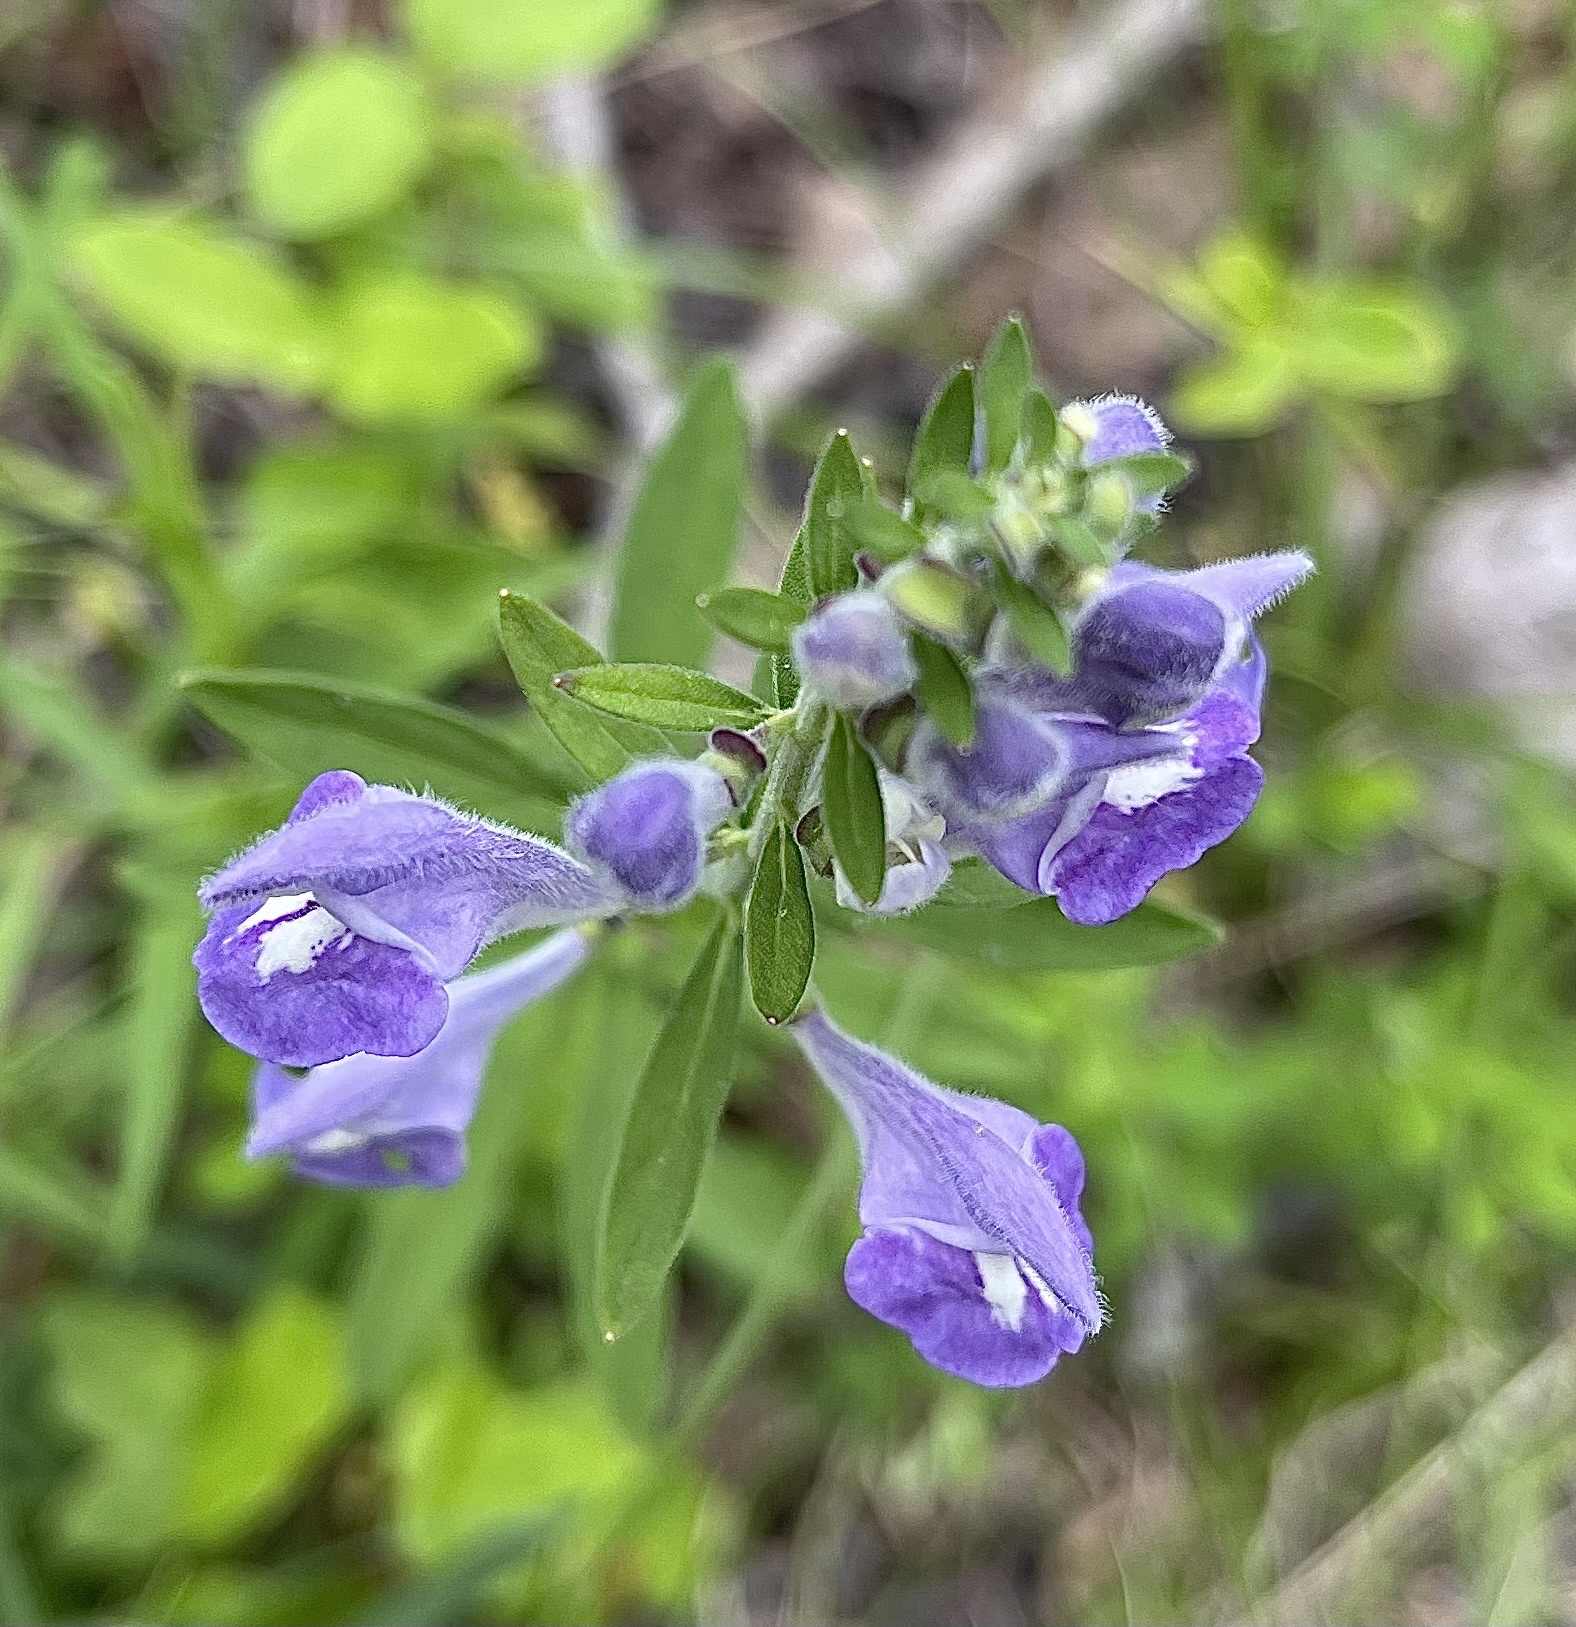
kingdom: Plantae
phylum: Tracheophyta
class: Magnoliopsida
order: Lamiales
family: Lamiaceae
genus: Scutellaria
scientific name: Scutellaria integrifolia
